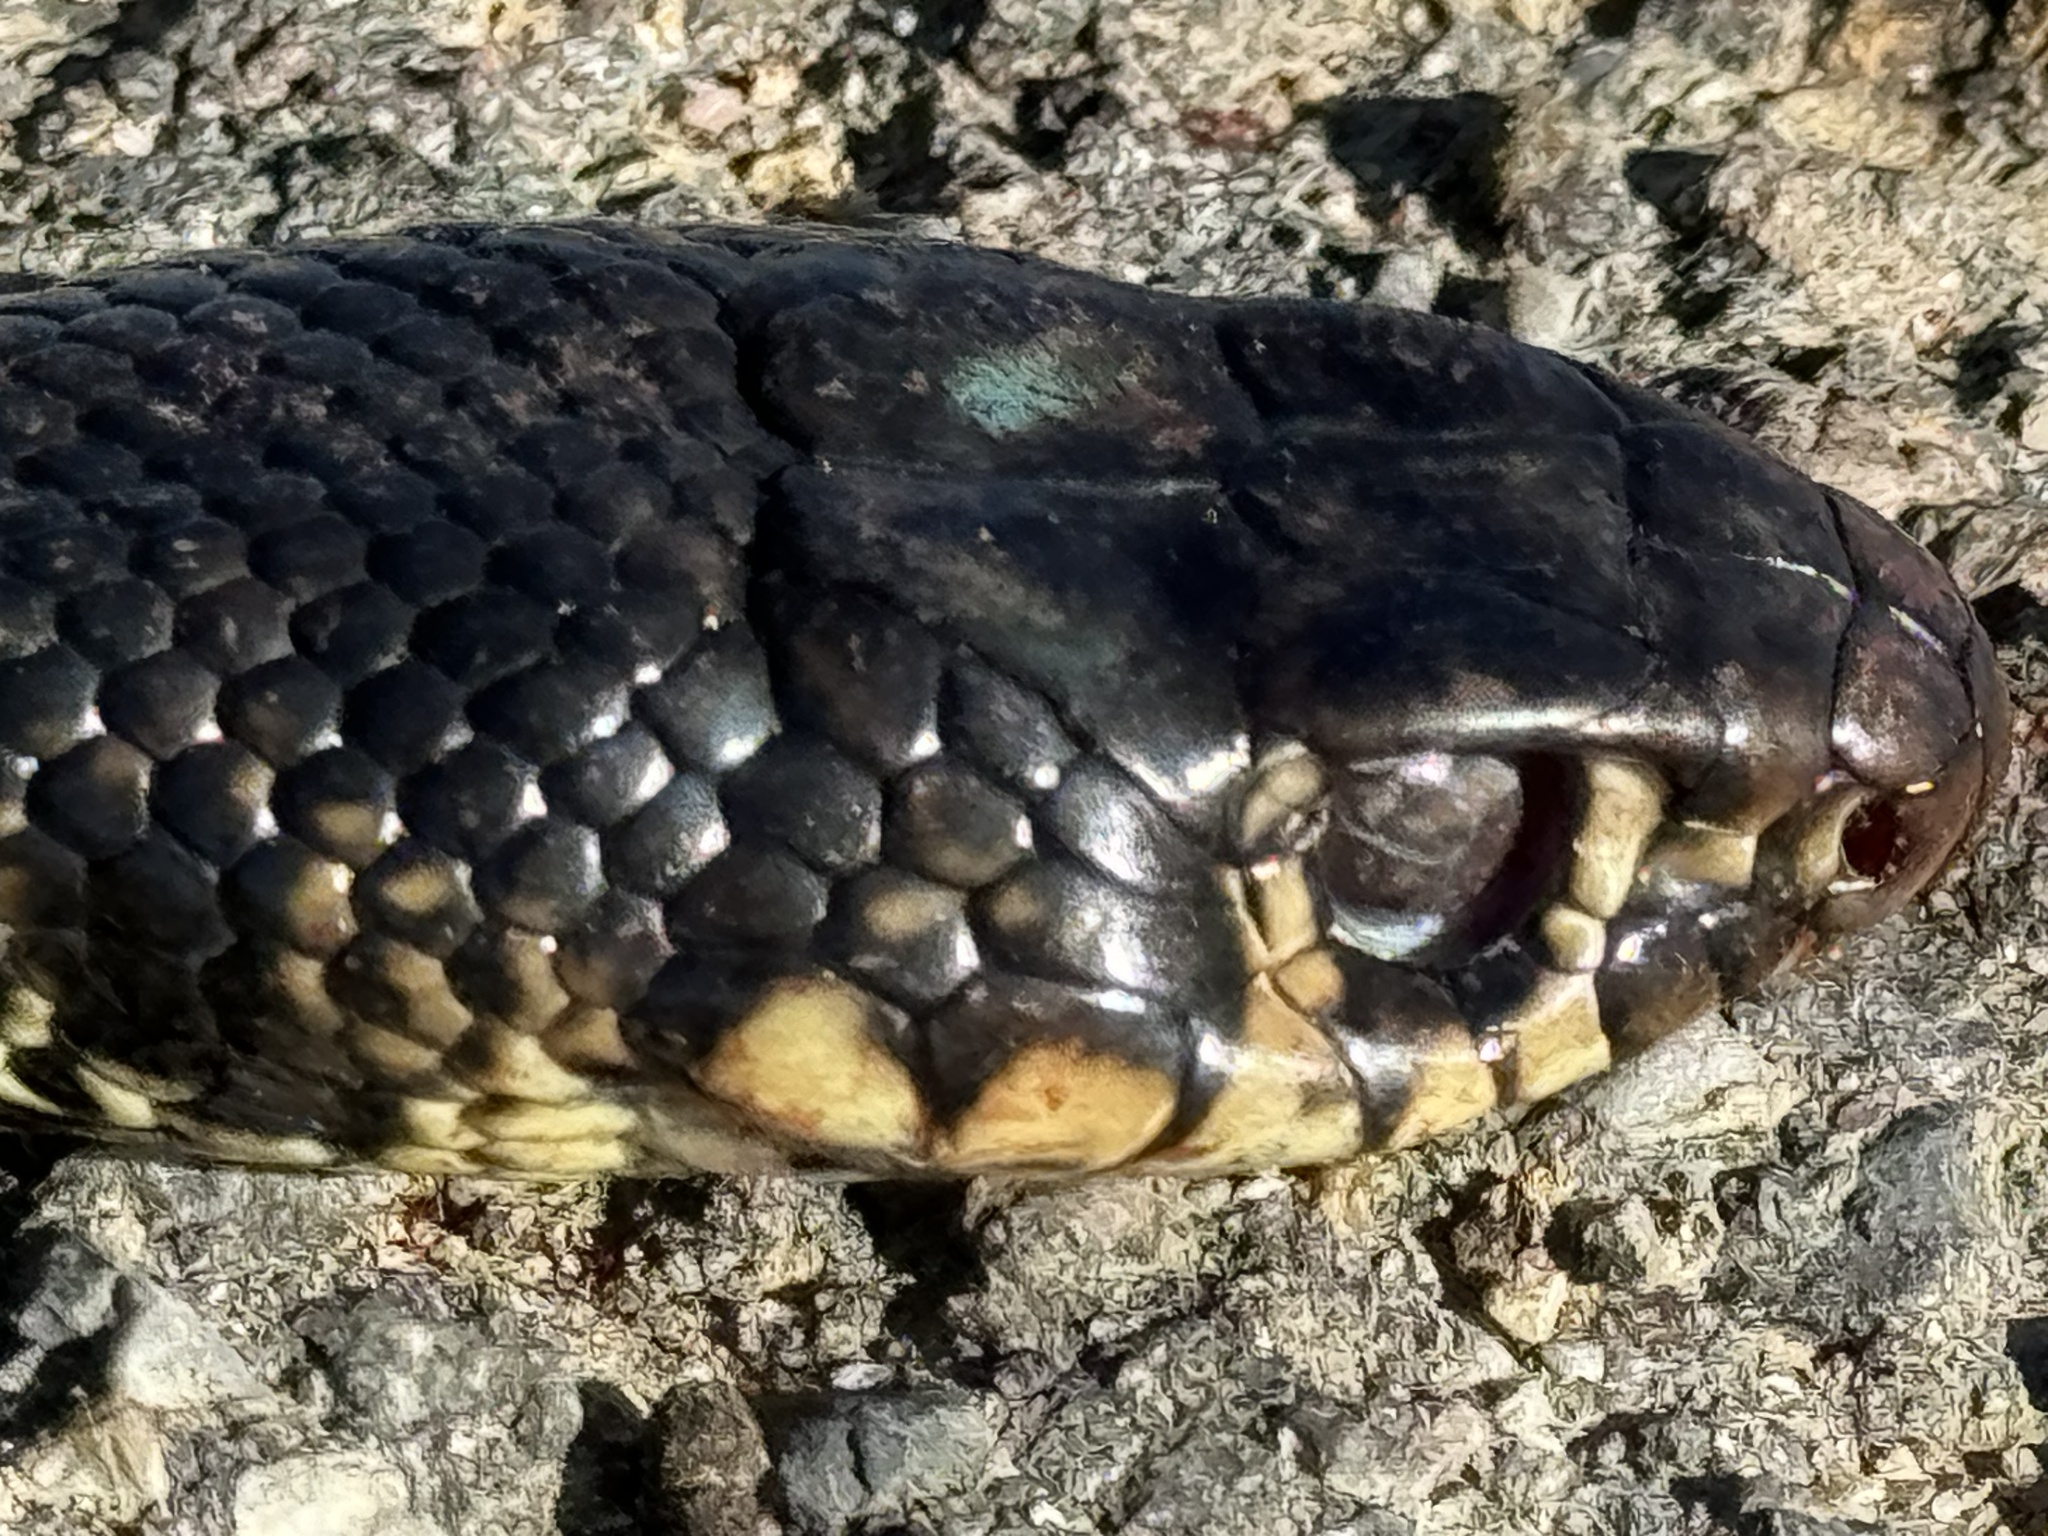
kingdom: Animalia
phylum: Chordata
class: Squamata
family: Colubridae
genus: Hierophis
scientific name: Hierophis viridiflavus
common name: Green whip snake
